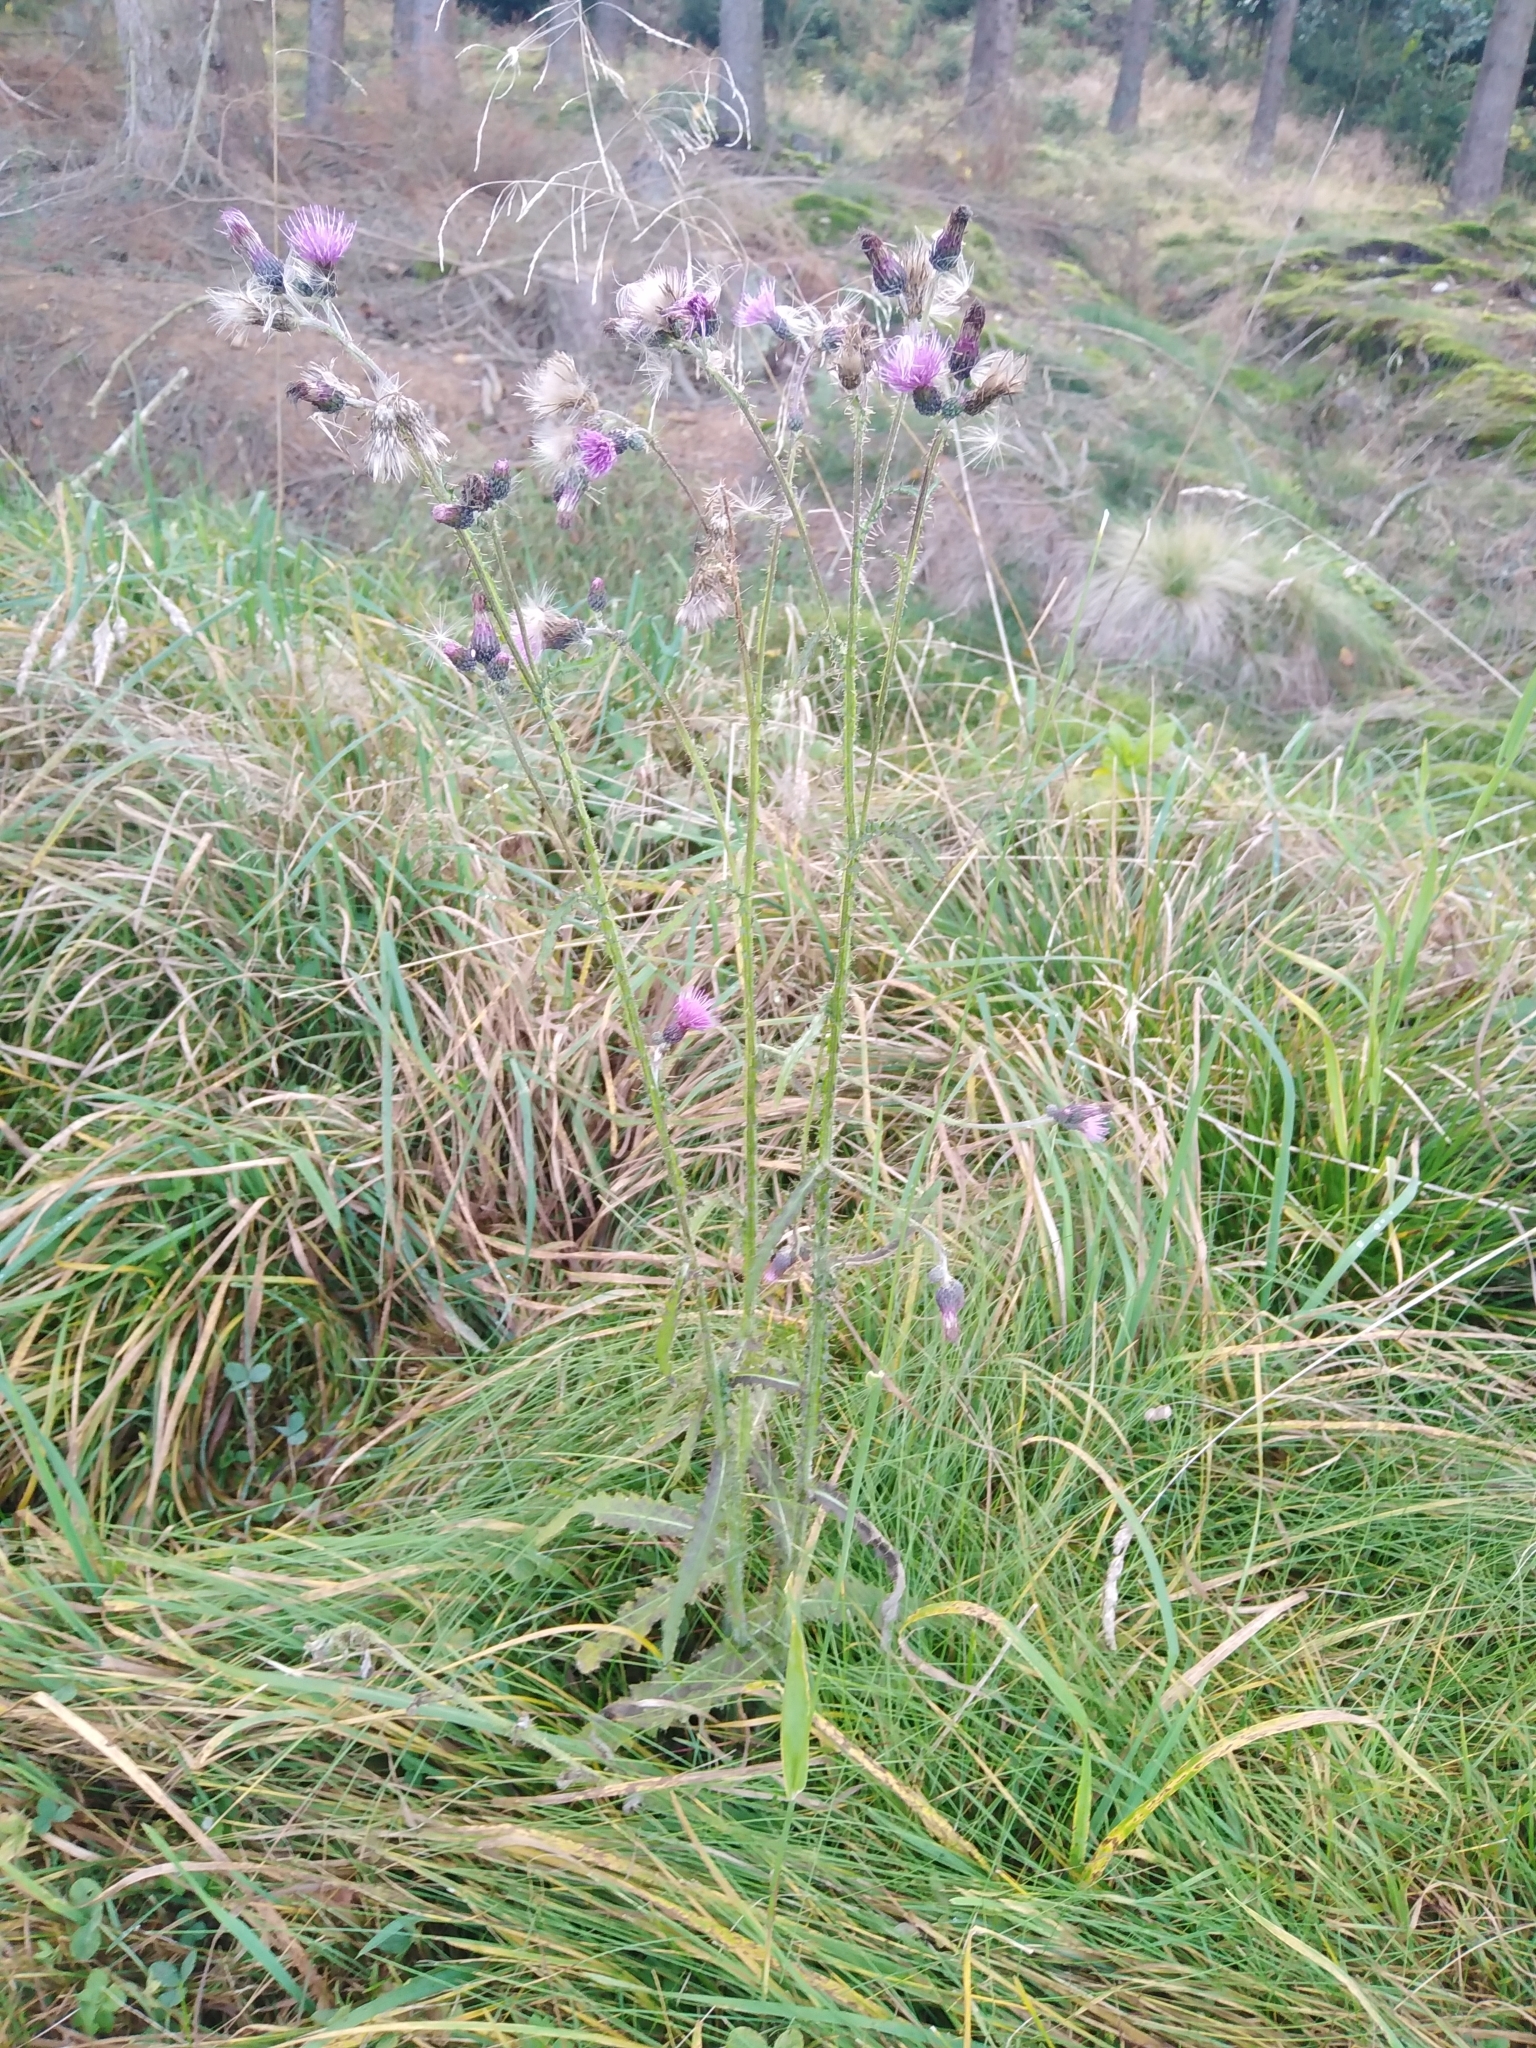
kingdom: Plantae
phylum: Tracheophyta
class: Magnoliopsida
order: Asterales
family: Asteraceae
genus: Cirsium
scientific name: Cirsium palustre
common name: Marsh thistle
